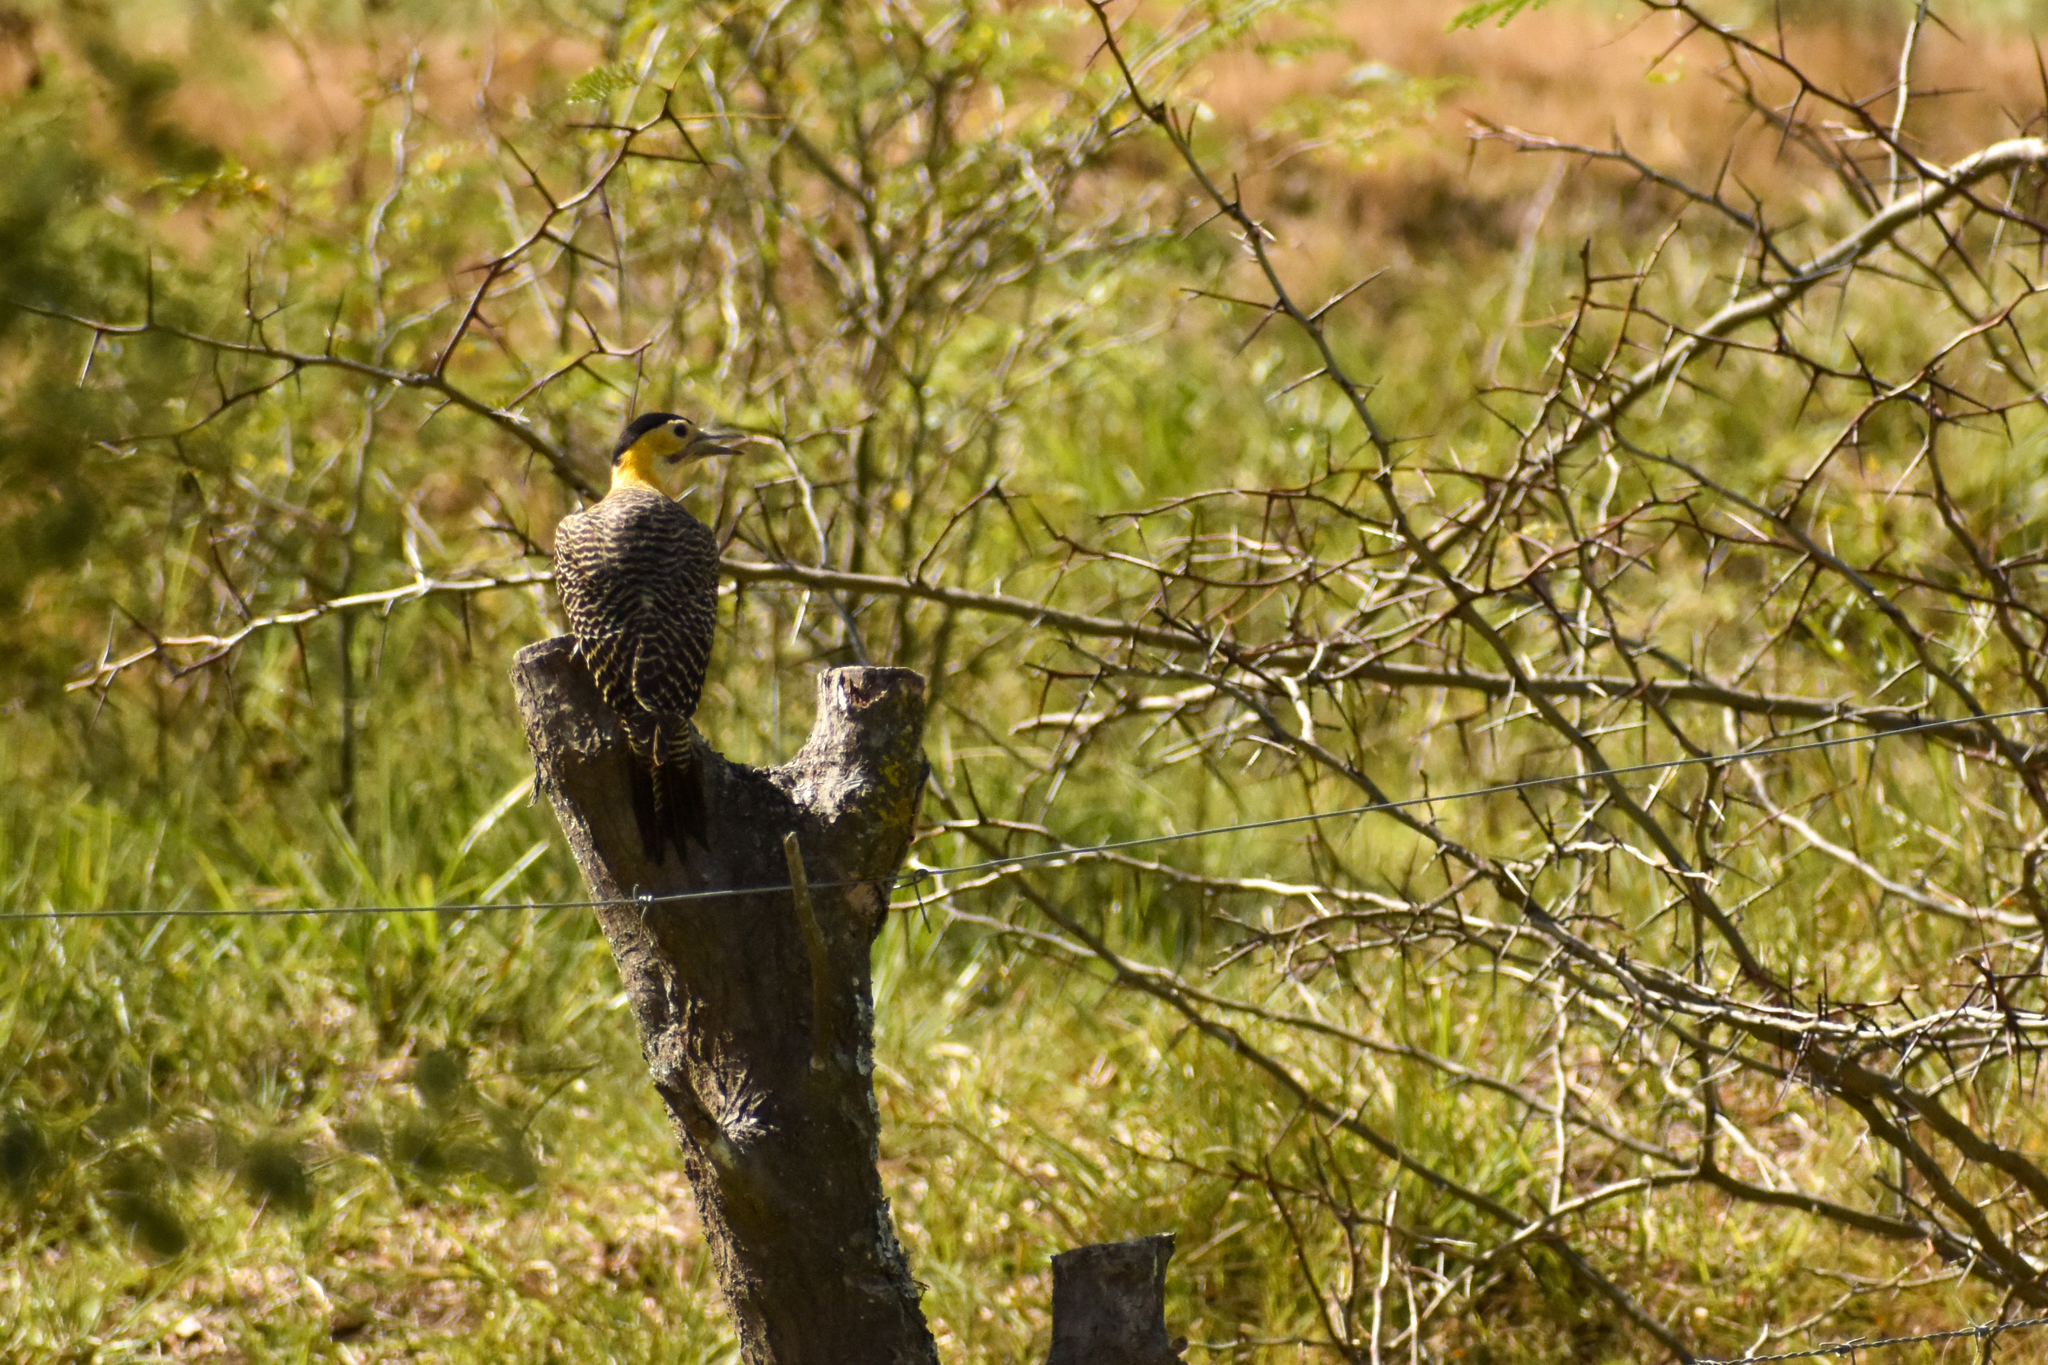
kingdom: Animalia
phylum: Chordata
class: Aves
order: Piciformes
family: Picidae
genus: Colaptes
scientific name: Colaptes campestris
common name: Campo flicker
